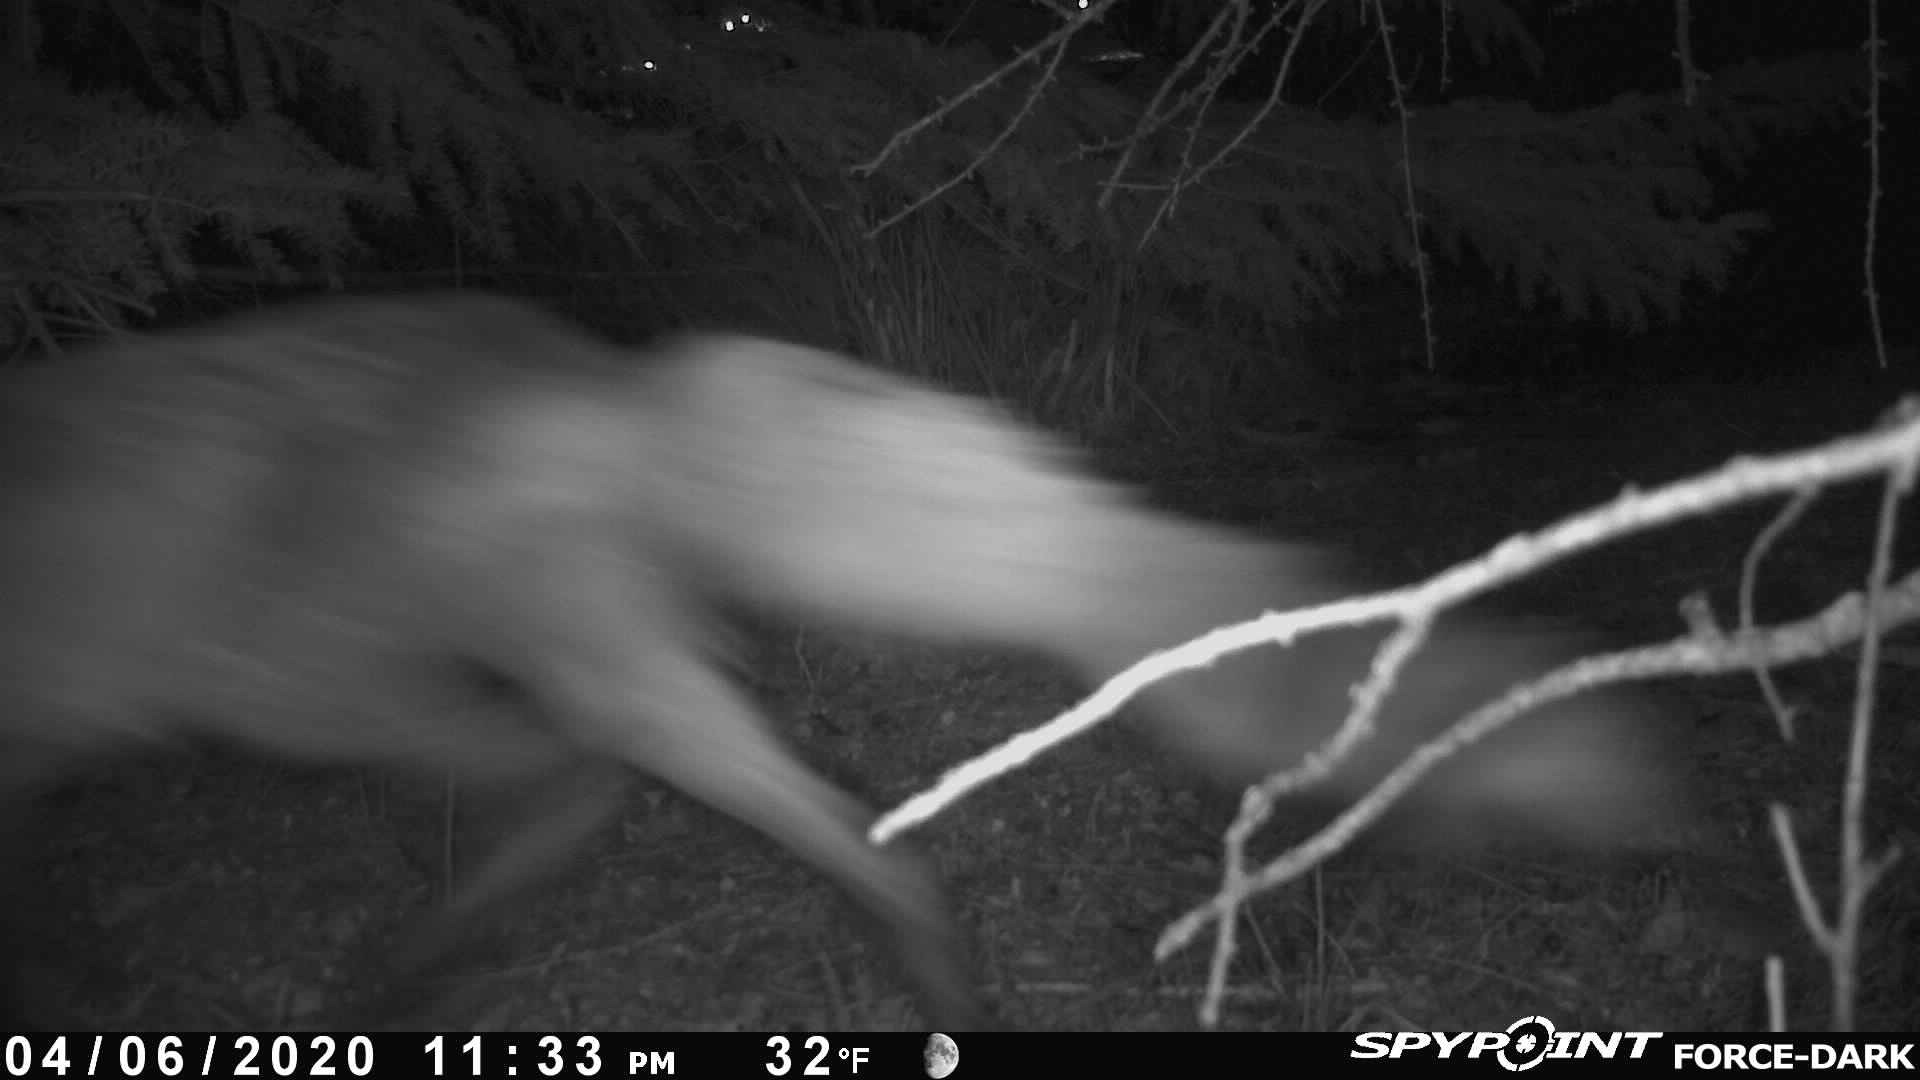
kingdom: Animalia
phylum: Chordata
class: Mammalia
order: Carnivora
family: Canidae
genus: Vulpes
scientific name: Vulpes vulpes
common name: Red fox
